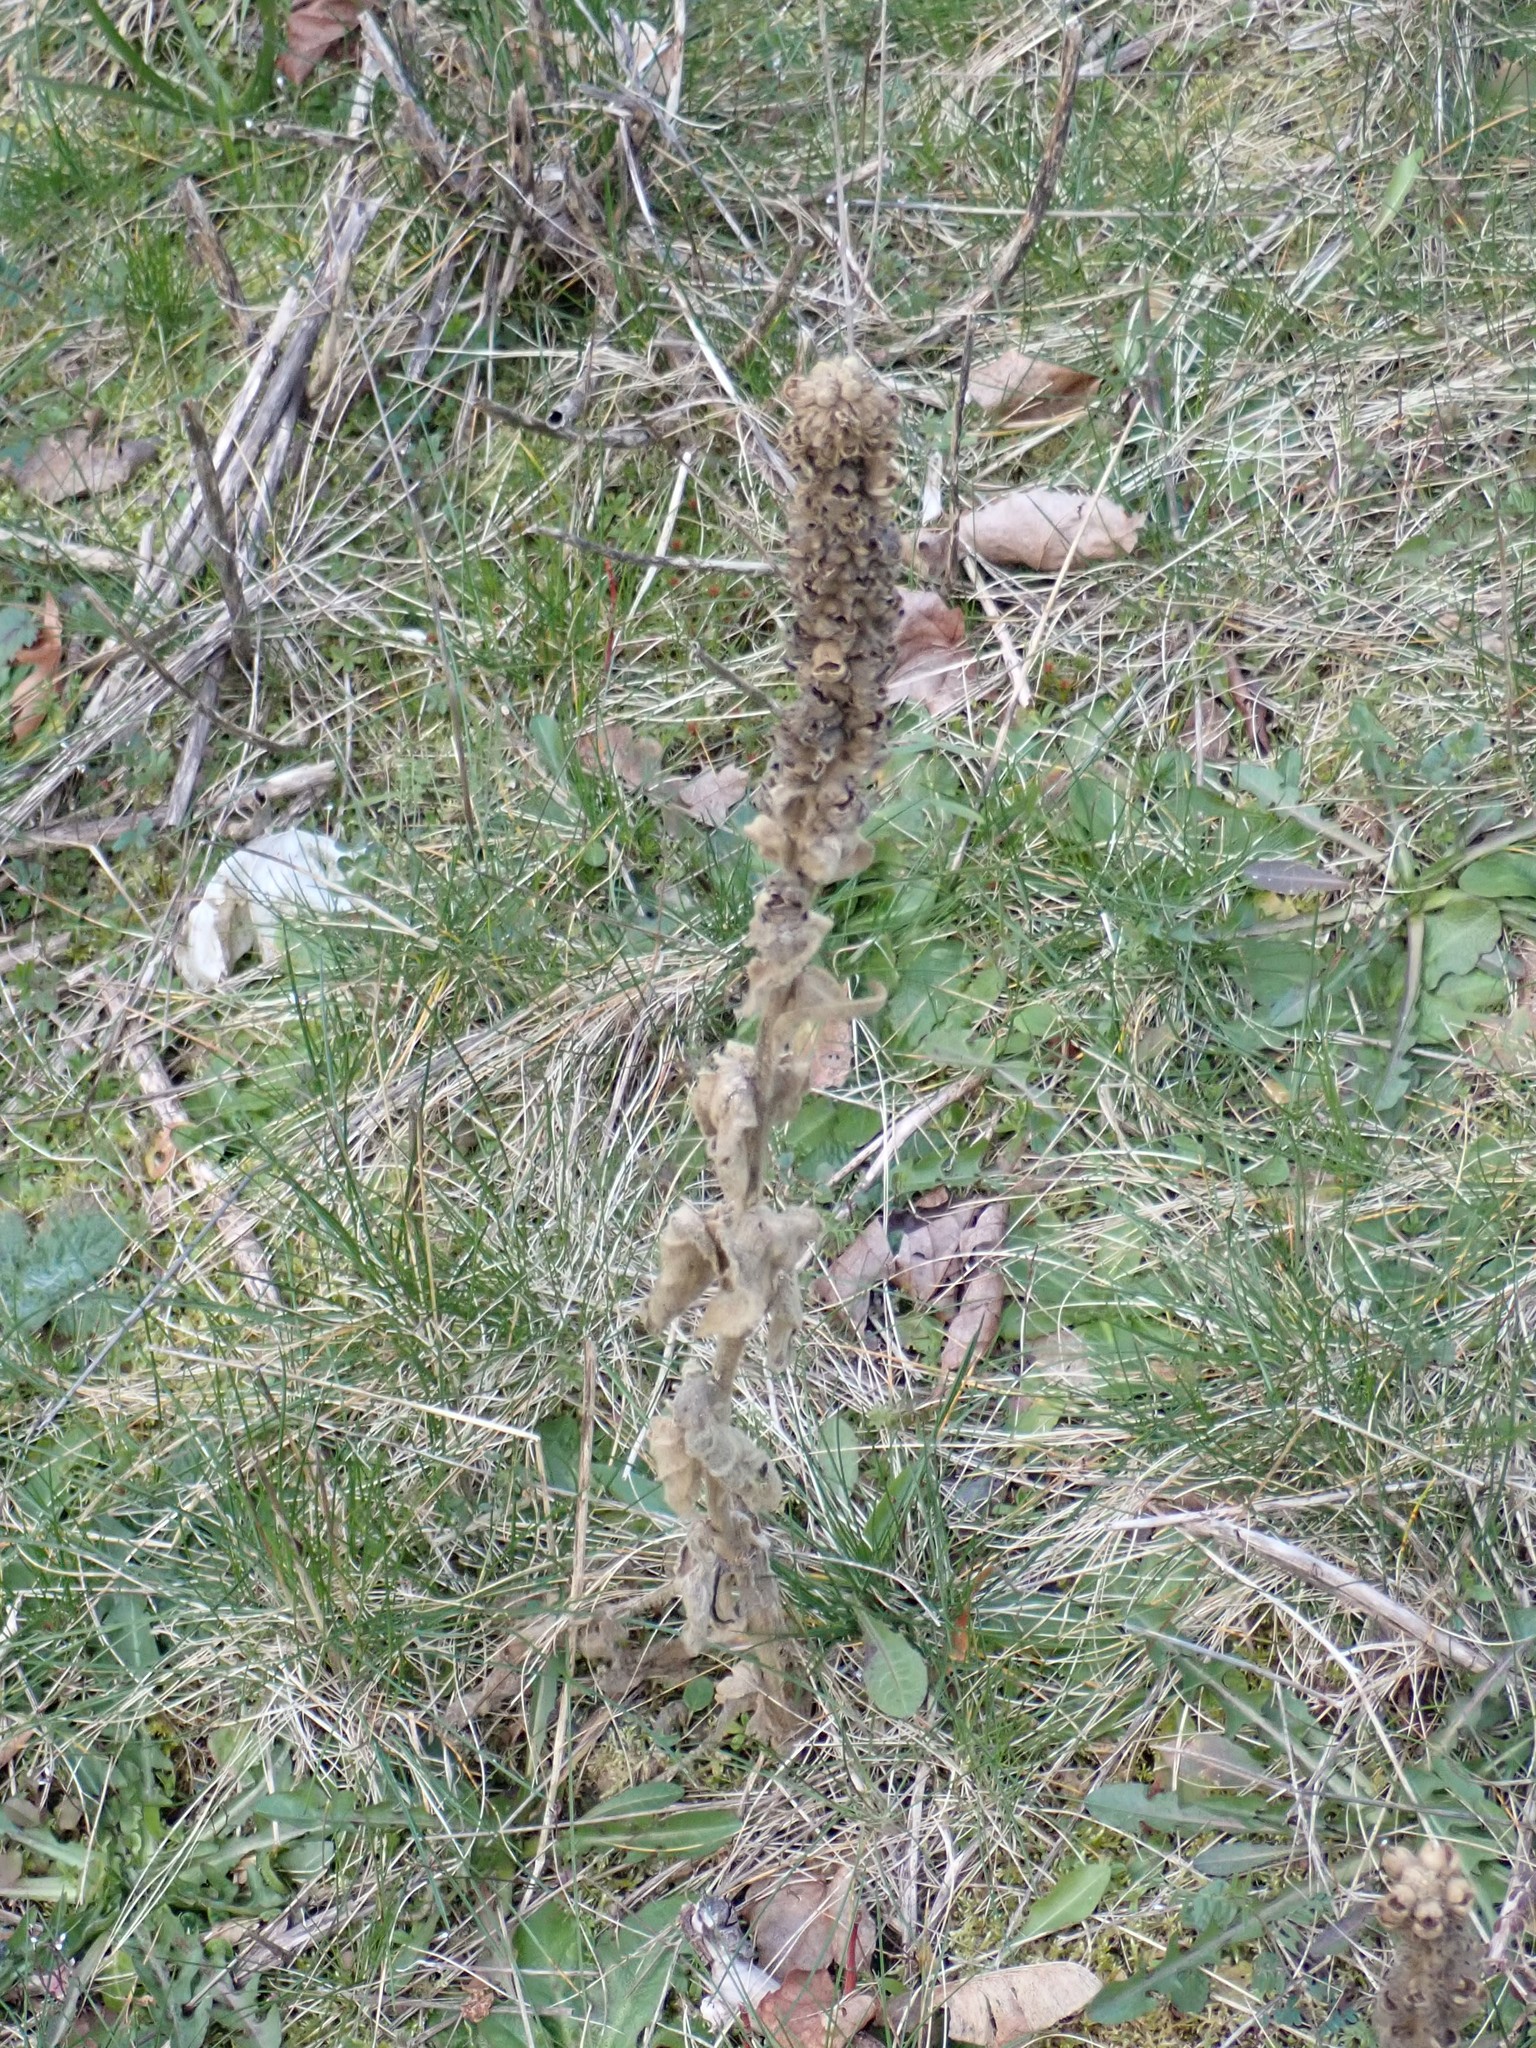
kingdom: Plantae
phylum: Tracheophyta
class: Magnoliopsida
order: Lamiales
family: Scrophulariaceae
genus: Verbascum
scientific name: Verbascum thapsus
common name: Common mullein
